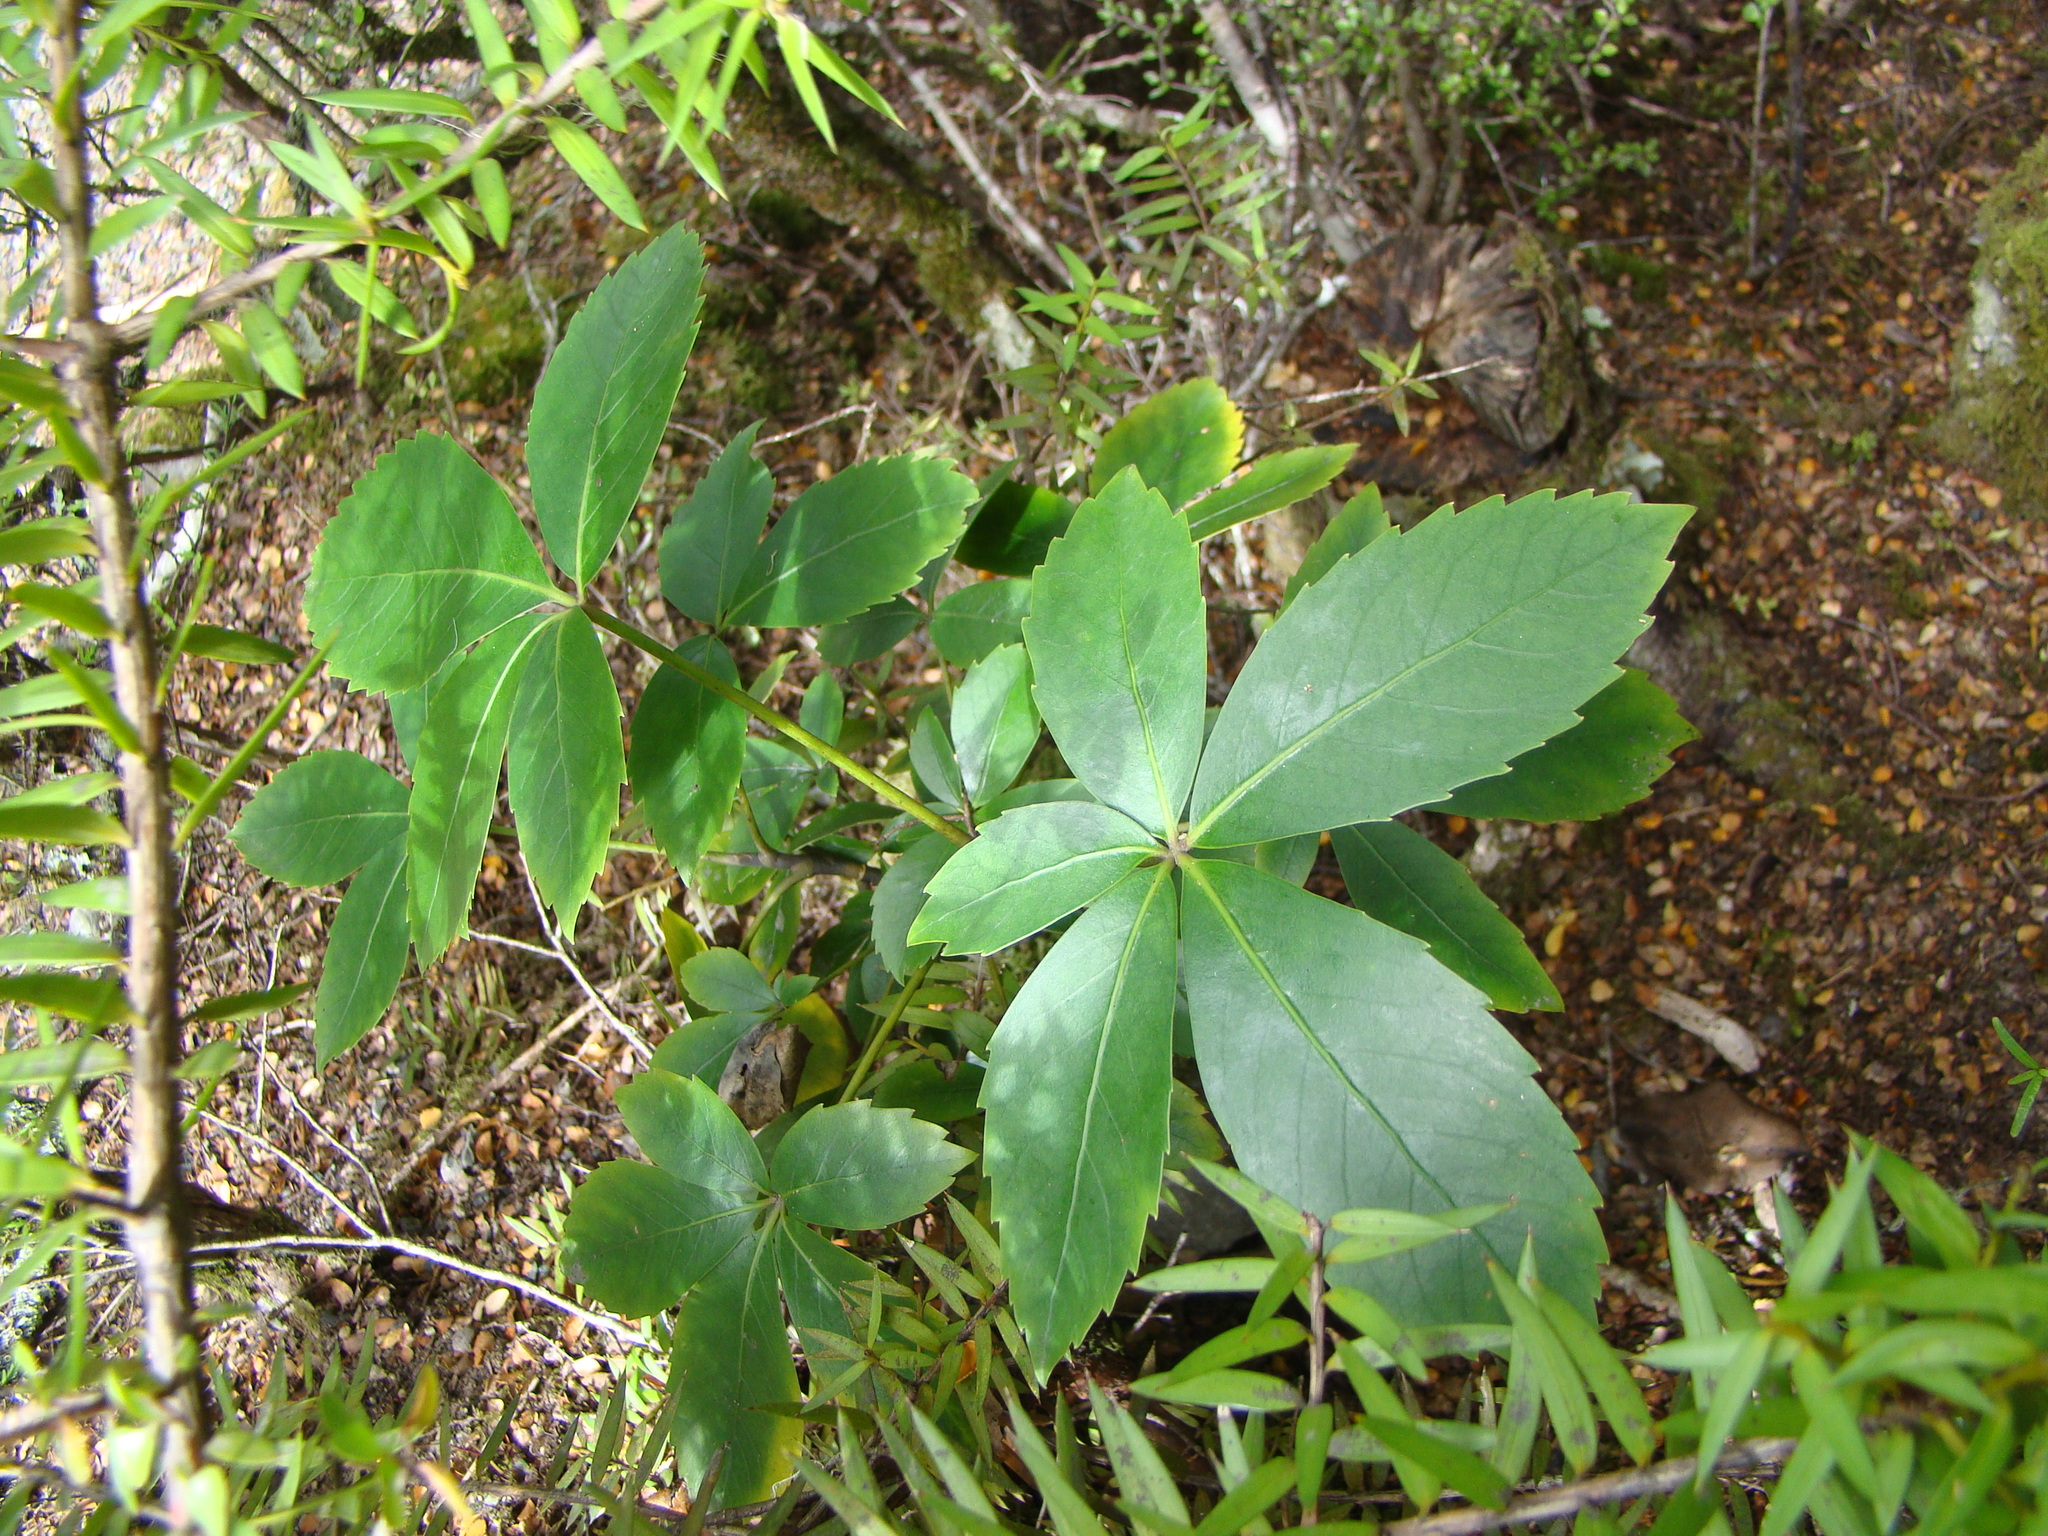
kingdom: Plantae
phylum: Tracheophyta
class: Magnoliopsida
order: Apiales
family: Araliaceae
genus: Neopanax
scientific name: Neopanax colensoi
